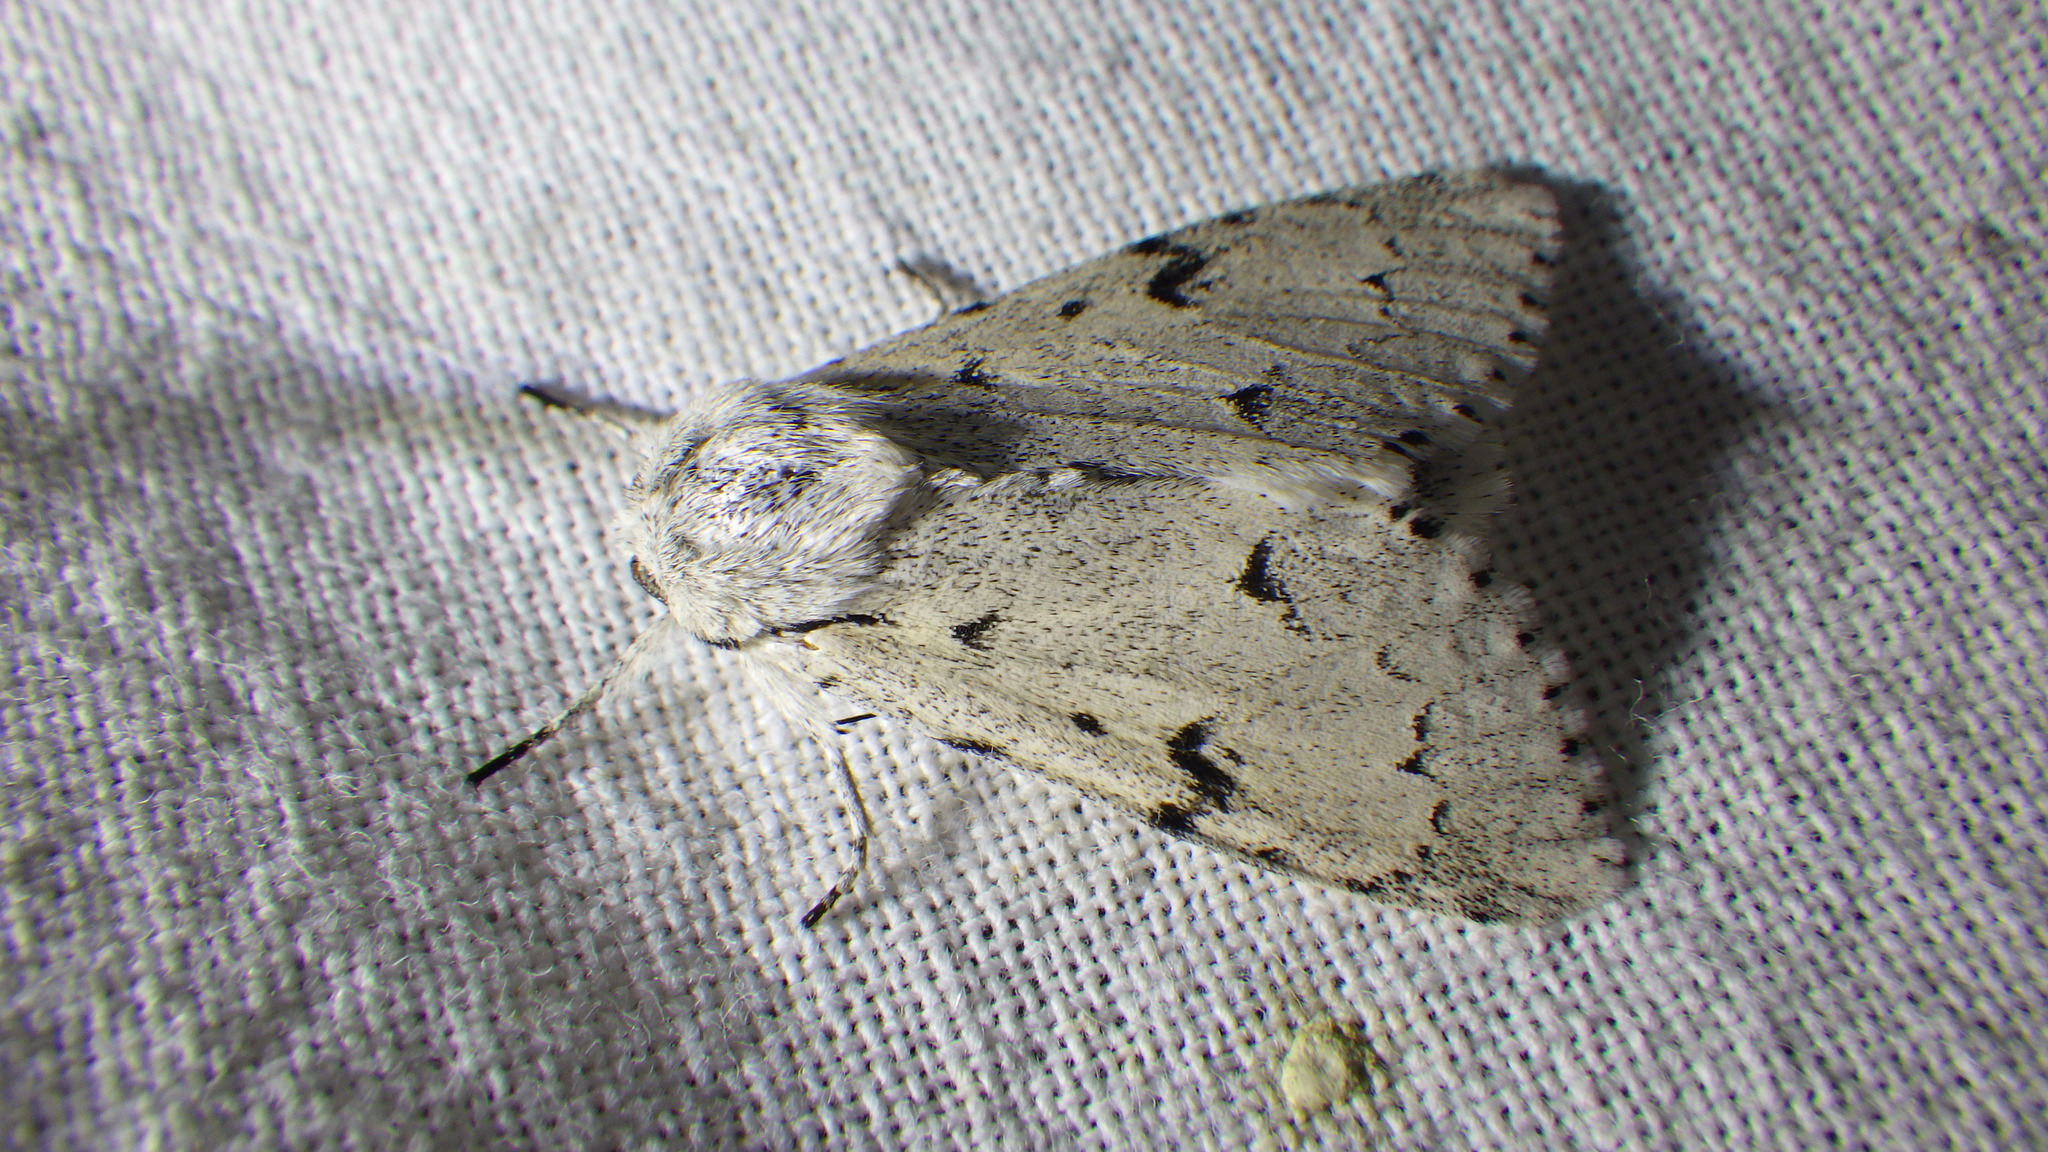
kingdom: Animalia
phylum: Arthropoda
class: Insecta
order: Lepidoptera
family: Noctuidae
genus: Acronicta
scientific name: Acronicta leporina
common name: Miller
